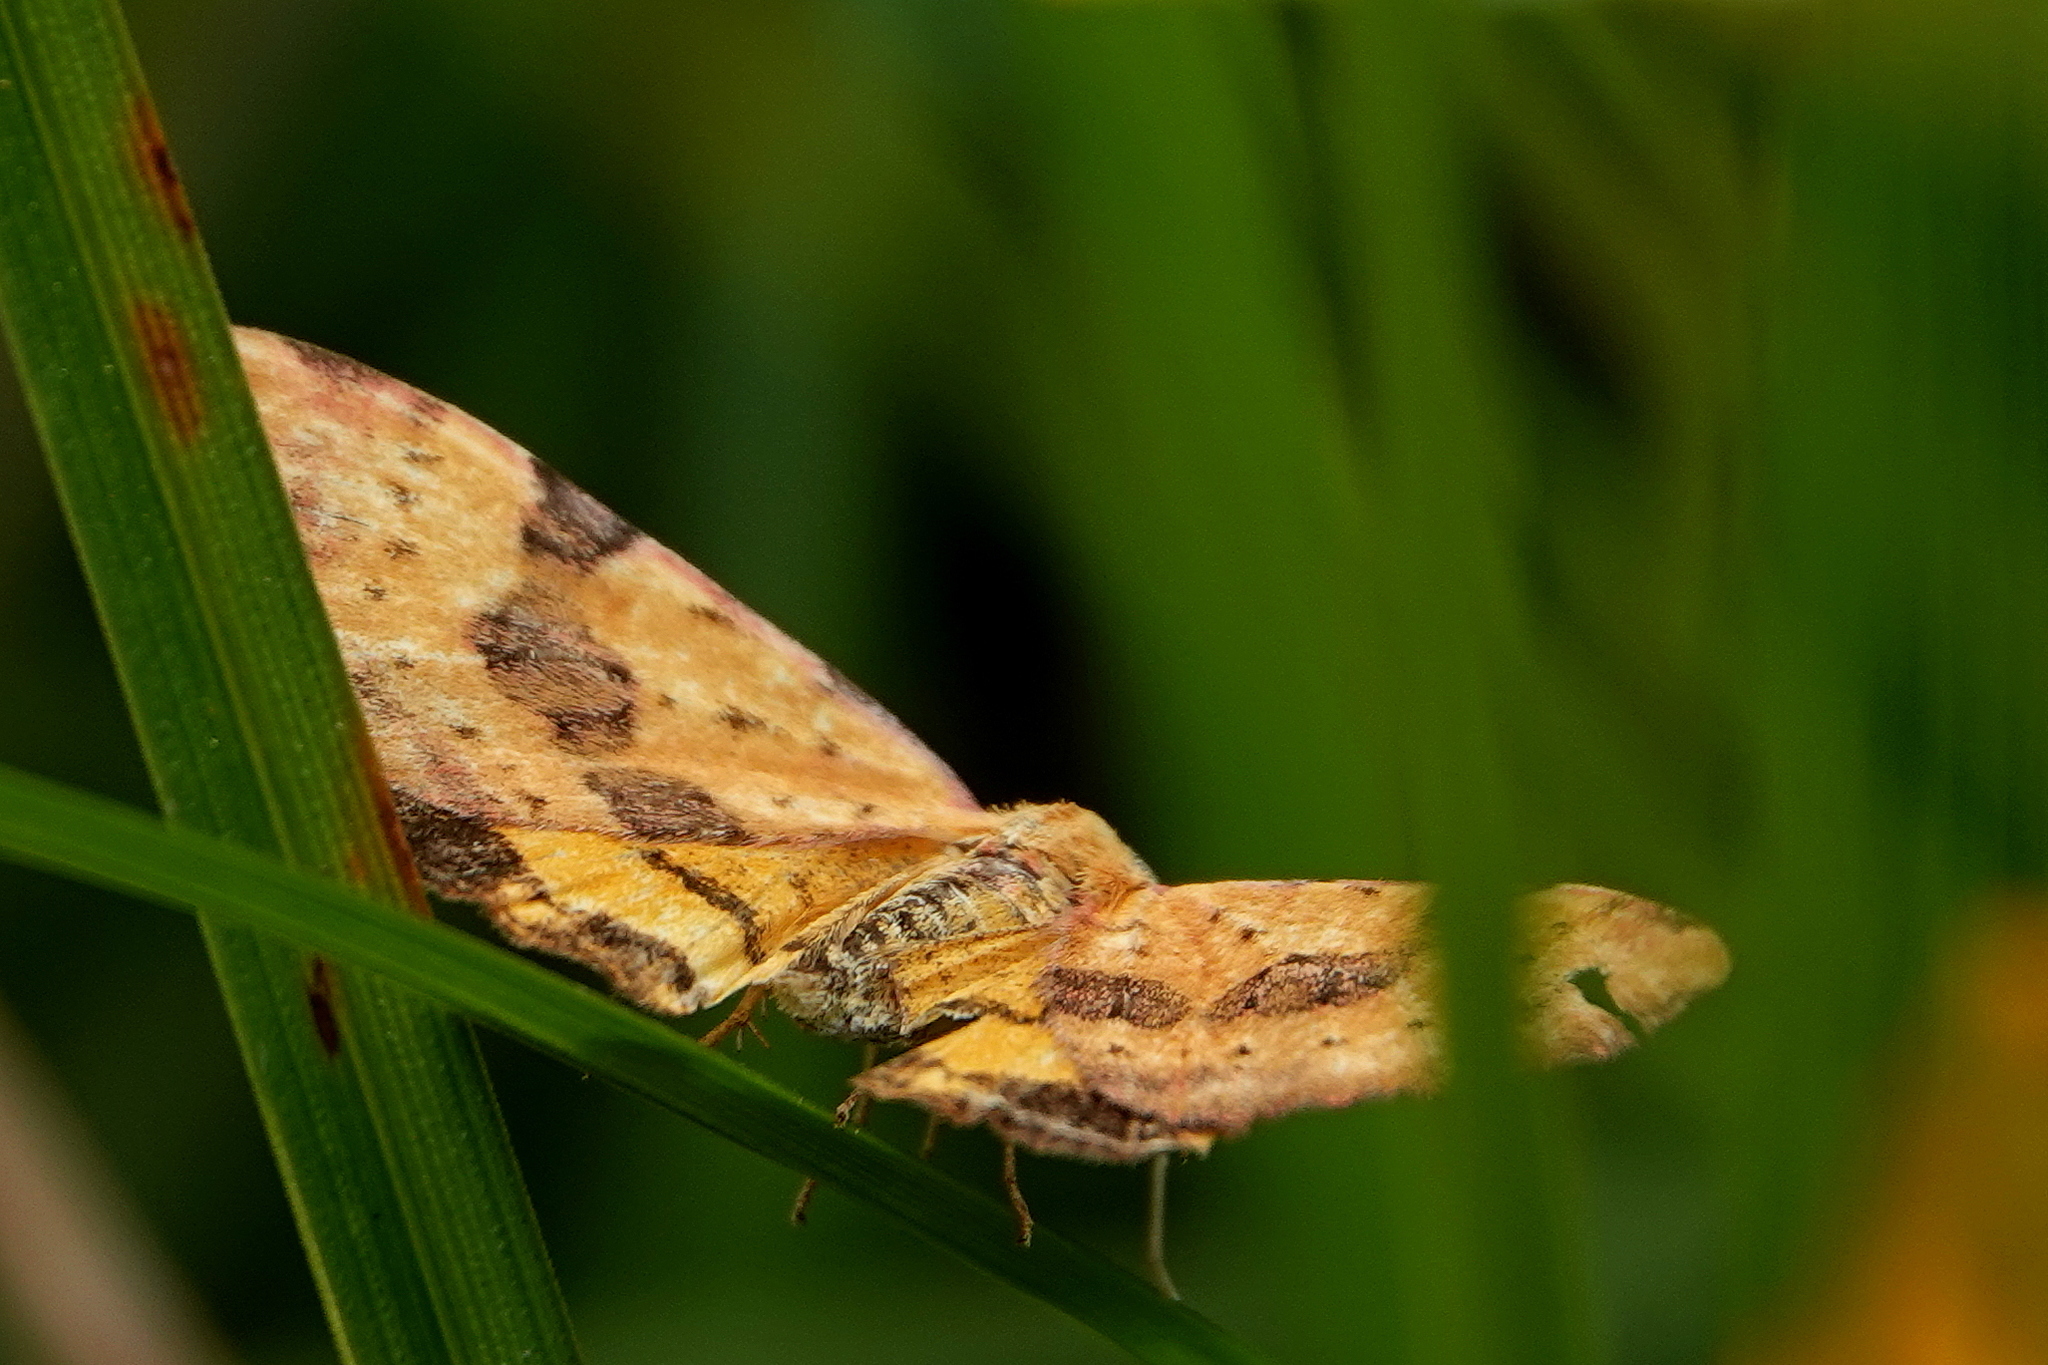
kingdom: Animalia
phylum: Arthropoda
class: Insecta
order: Lepidoptera
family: Geometridae
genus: Chrysolarentia
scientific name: Chrysolarentia perornata
